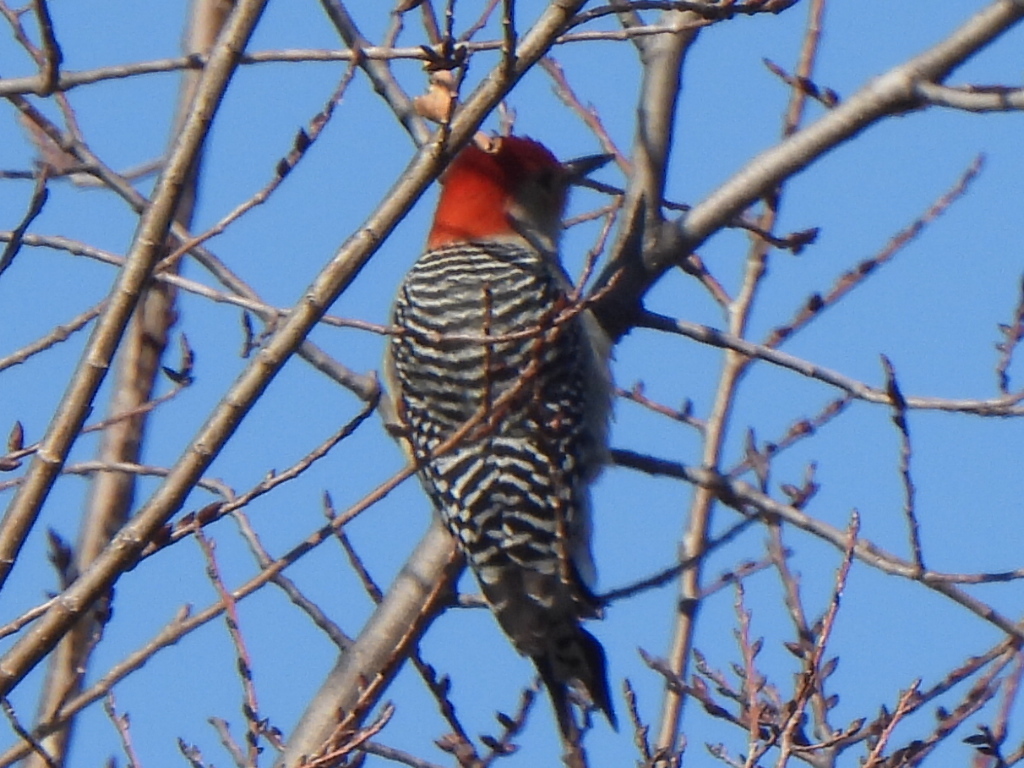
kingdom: Animalia
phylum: Chordata
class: Aves
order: Piciformes
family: Picidae
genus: Melanerpes
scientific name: Melanerpes carolinus
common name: Red-bellied woodpecker
